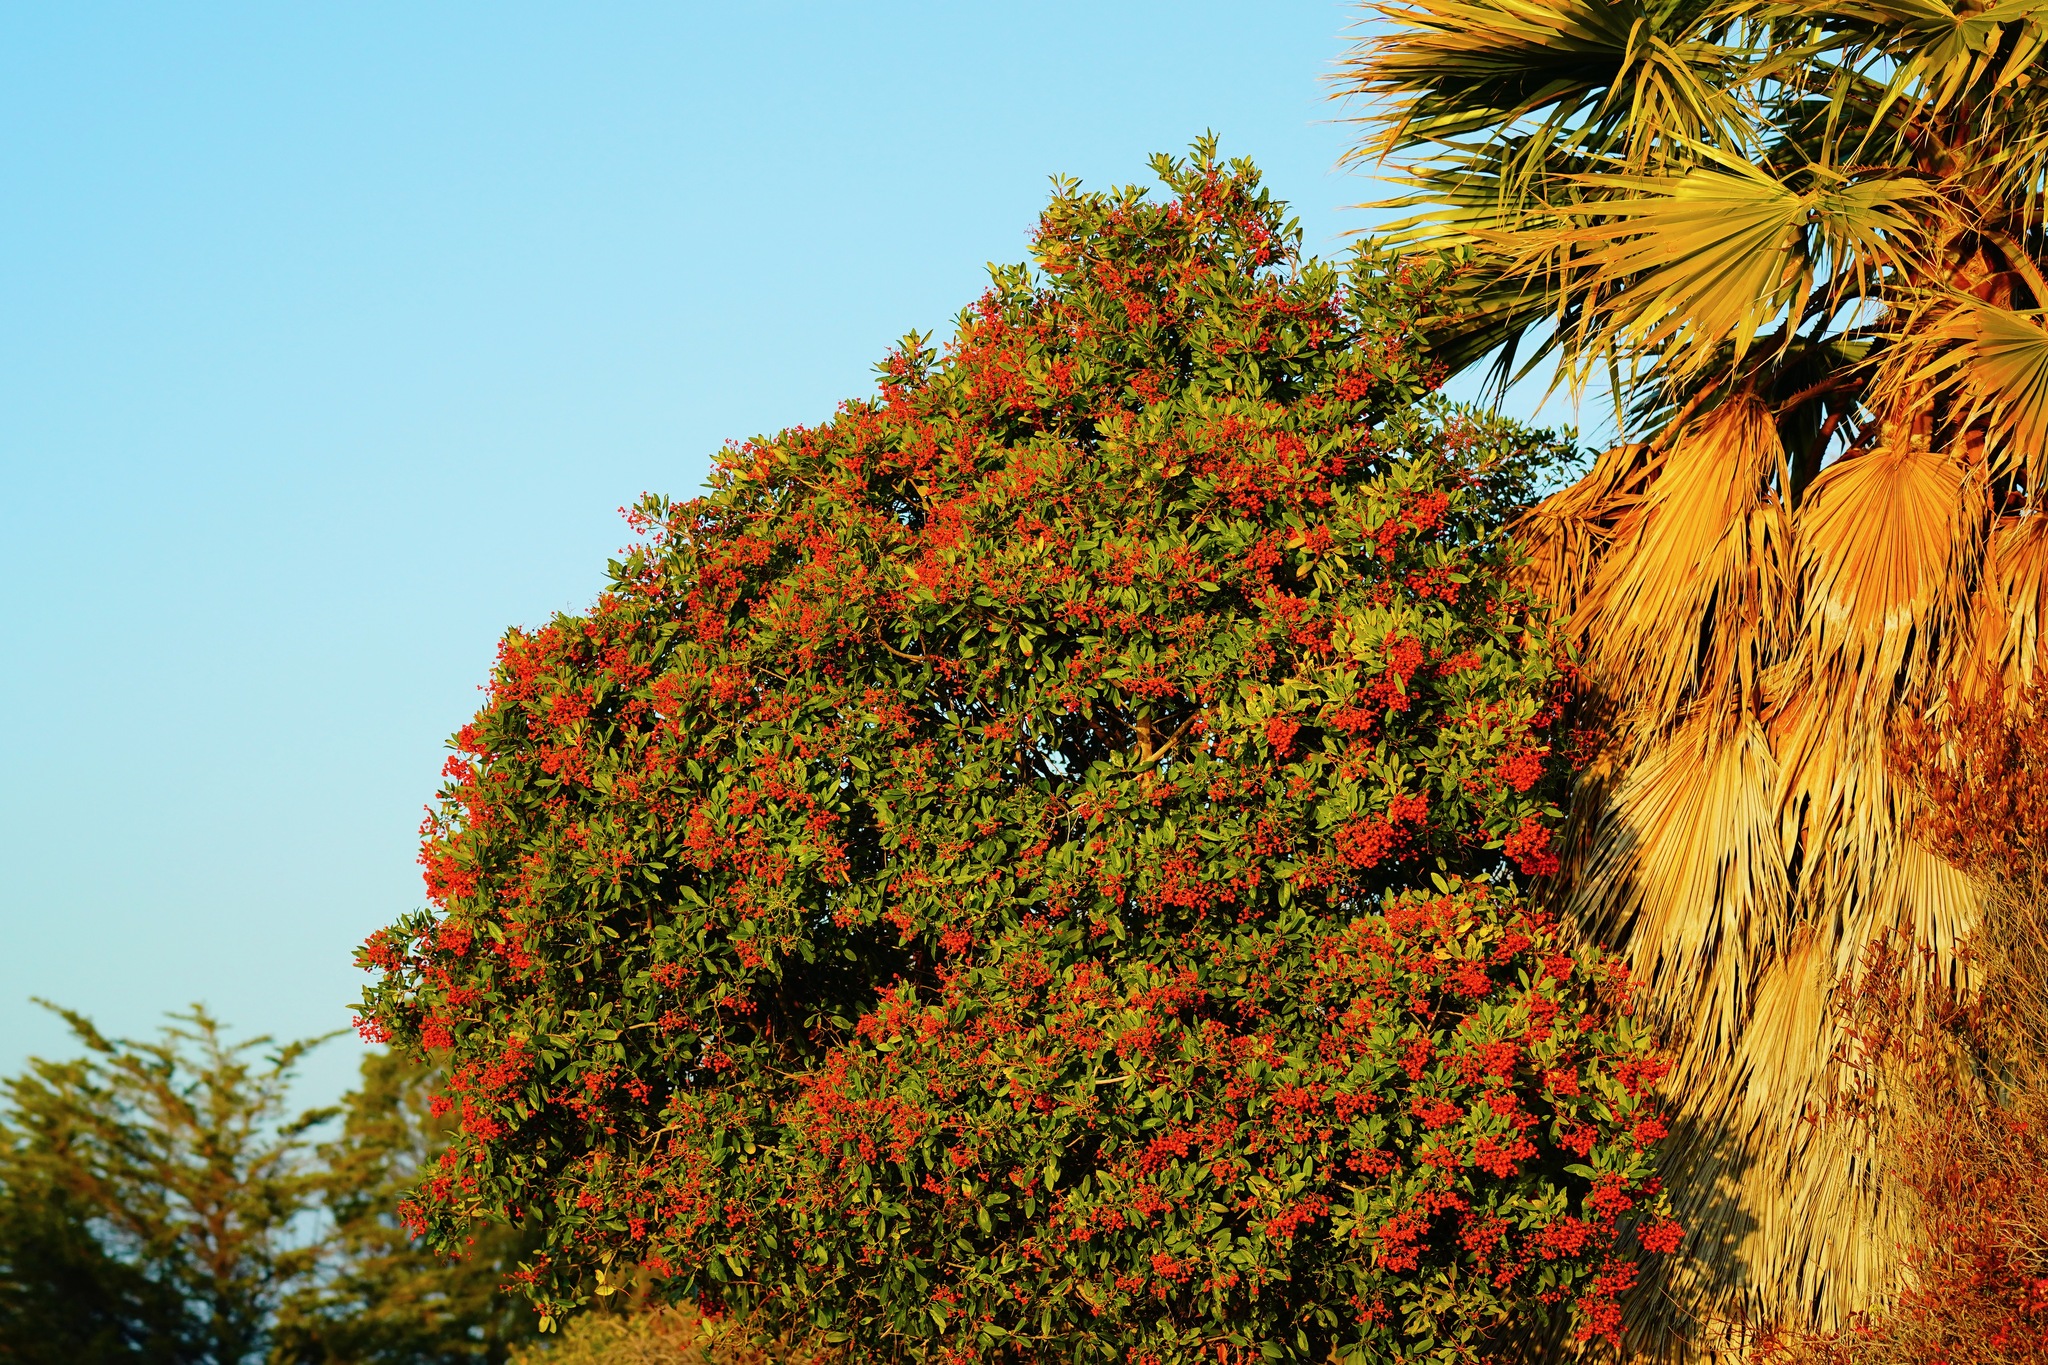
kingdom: Plantae
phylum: Tracheophyta
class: Magnoliopsida
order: Rosales
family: Rosaceae
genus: Heteromeles
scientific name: Heteromeles arbutifolia
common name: California-holly
